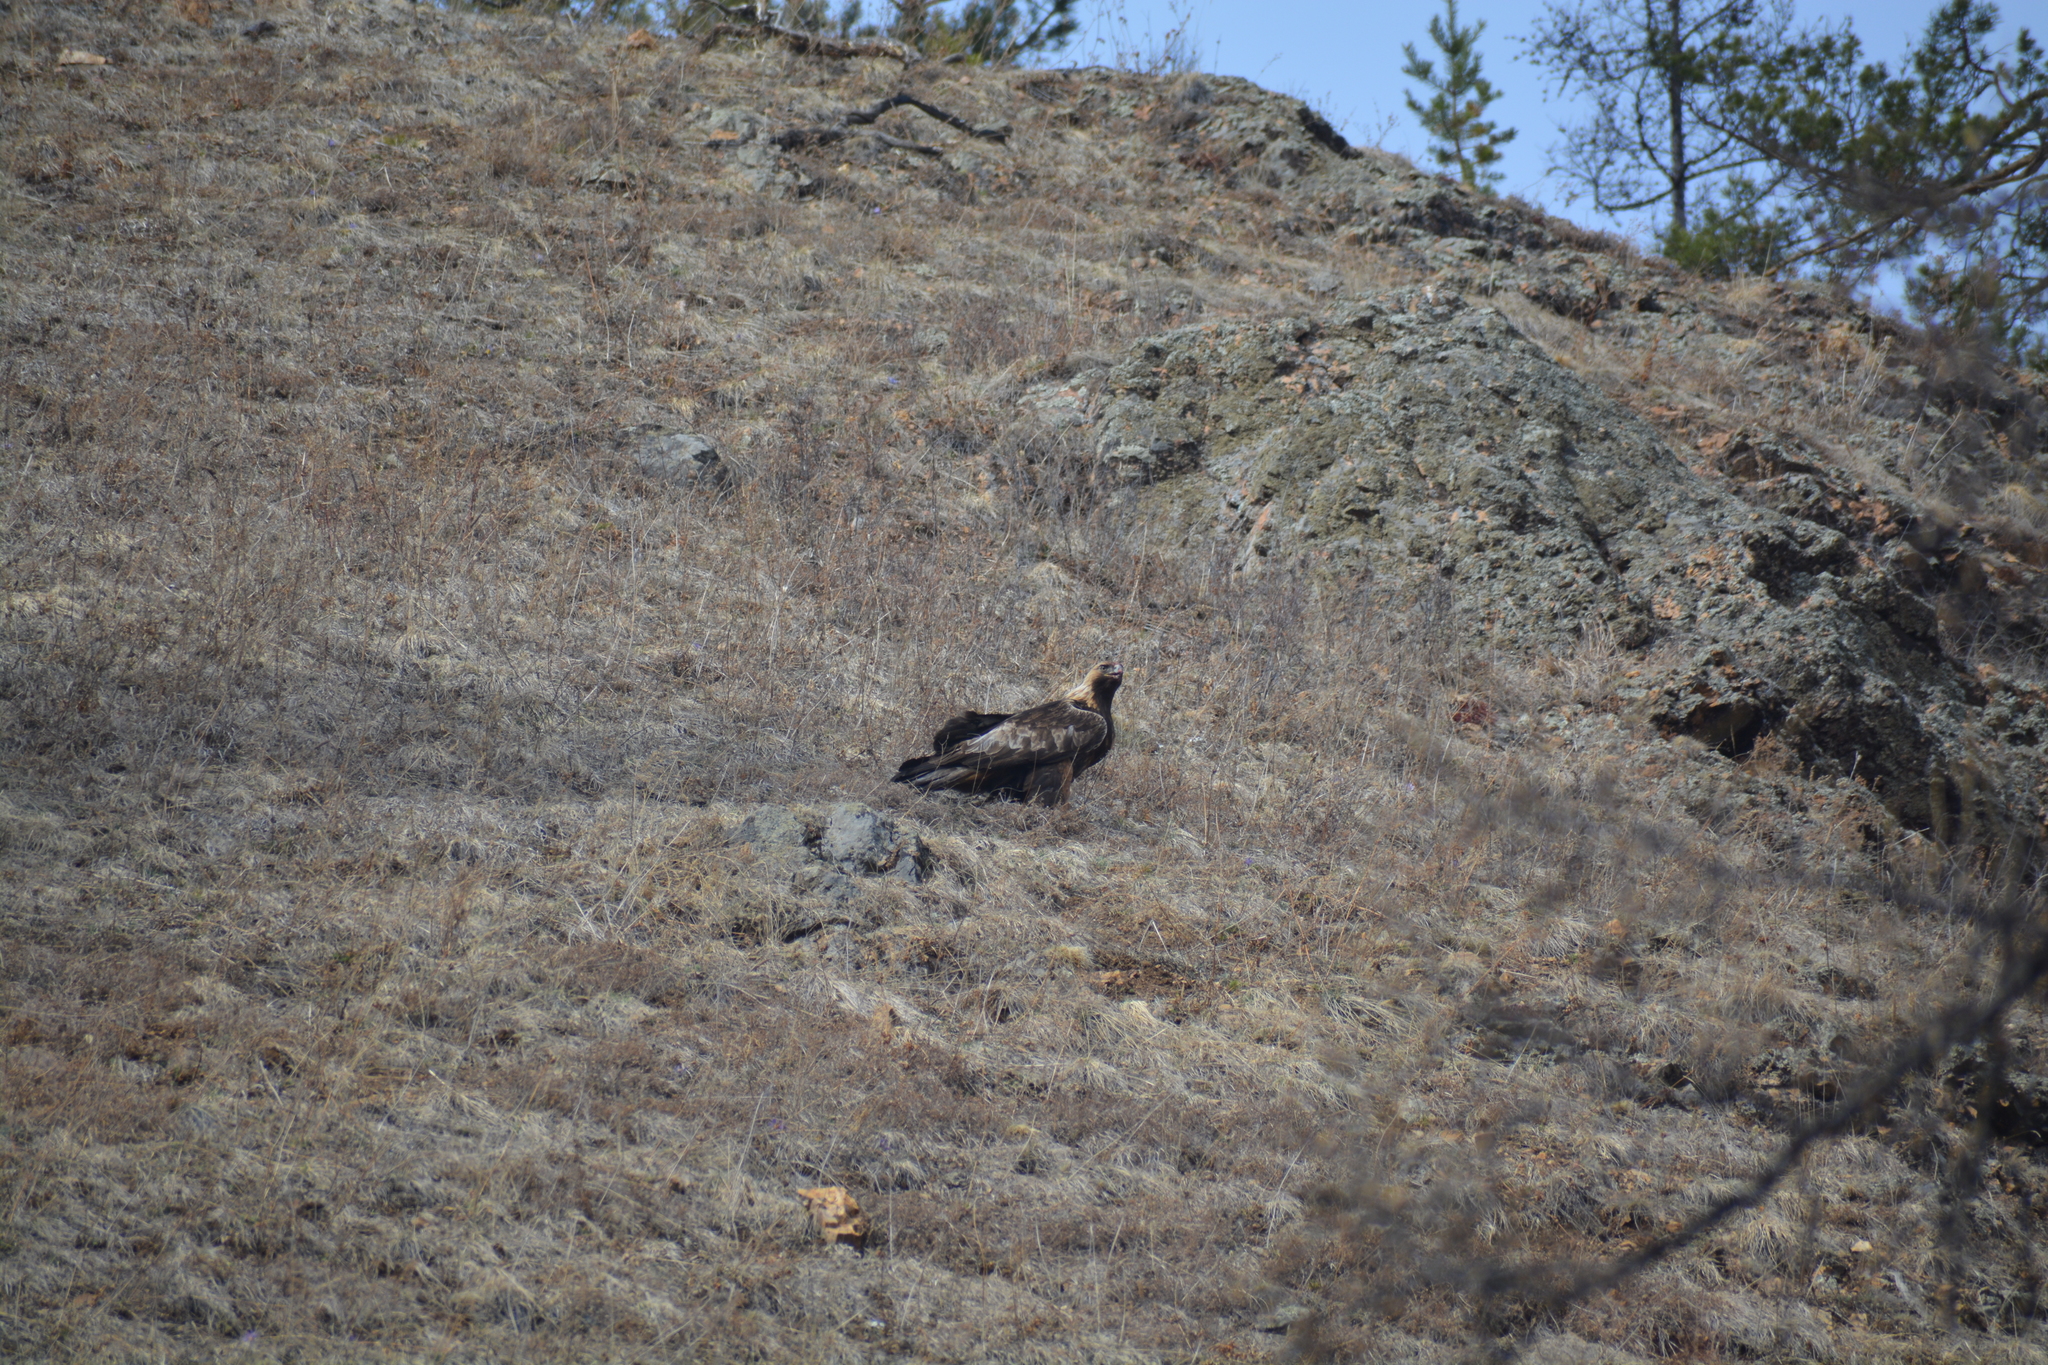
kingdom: Animalia
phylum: Chordata
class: Aves
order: Accipitriformes
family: Accipitridae
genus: Aquila
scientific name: Aquila chrysaetos
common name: Golden eagle
